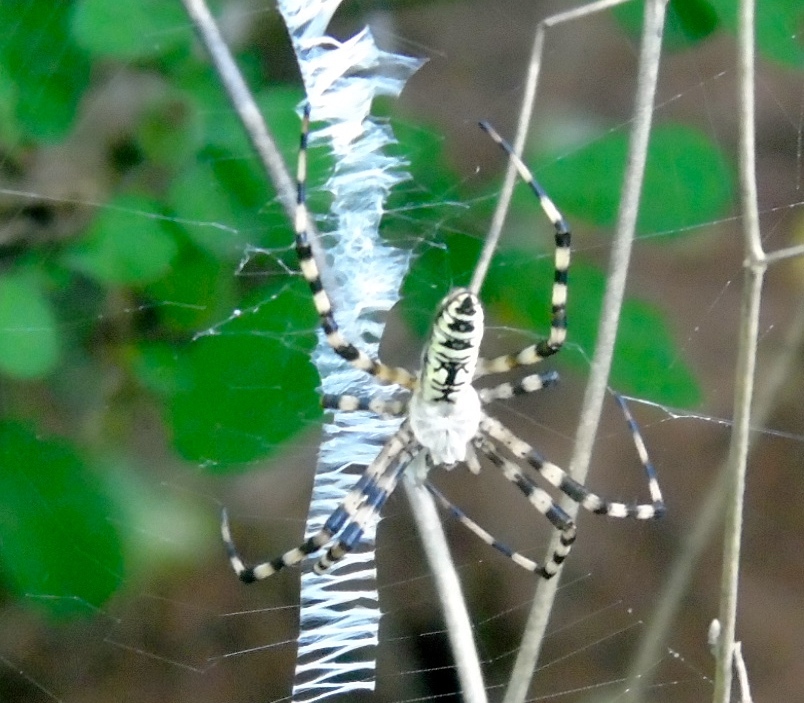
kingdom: Animalia
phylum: Arthropoda
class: Arachnida
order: Araneae
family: Araneidae
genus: Argiope
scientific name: Argiope aurantia
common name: Orb weavers
